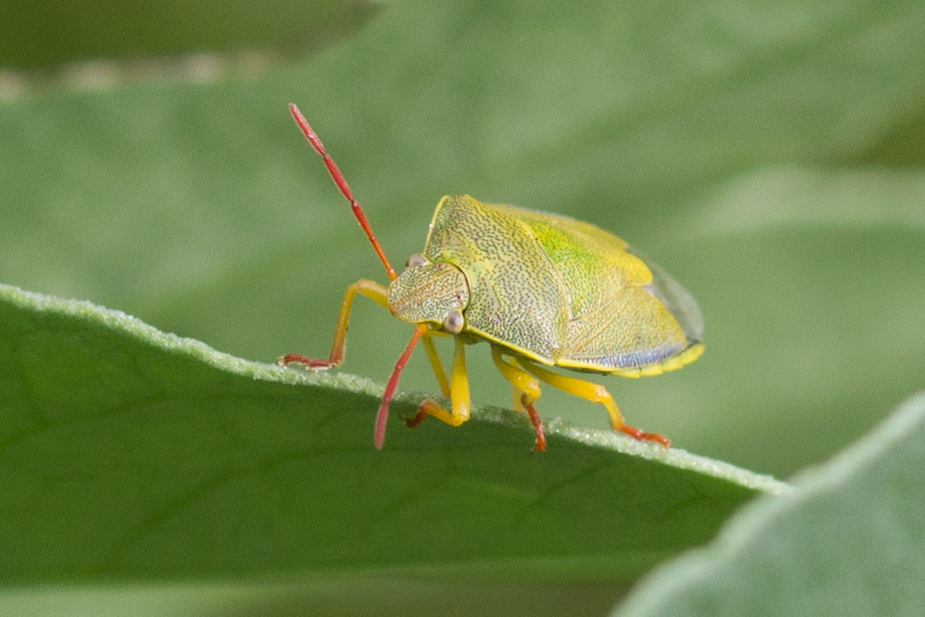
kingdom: Animalia
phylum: Arthropoda
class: Insecta
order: Hemiptera
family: Pentatomidae
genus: Piezodorus
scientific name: Piezodorus lituratus
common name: Stink bug
